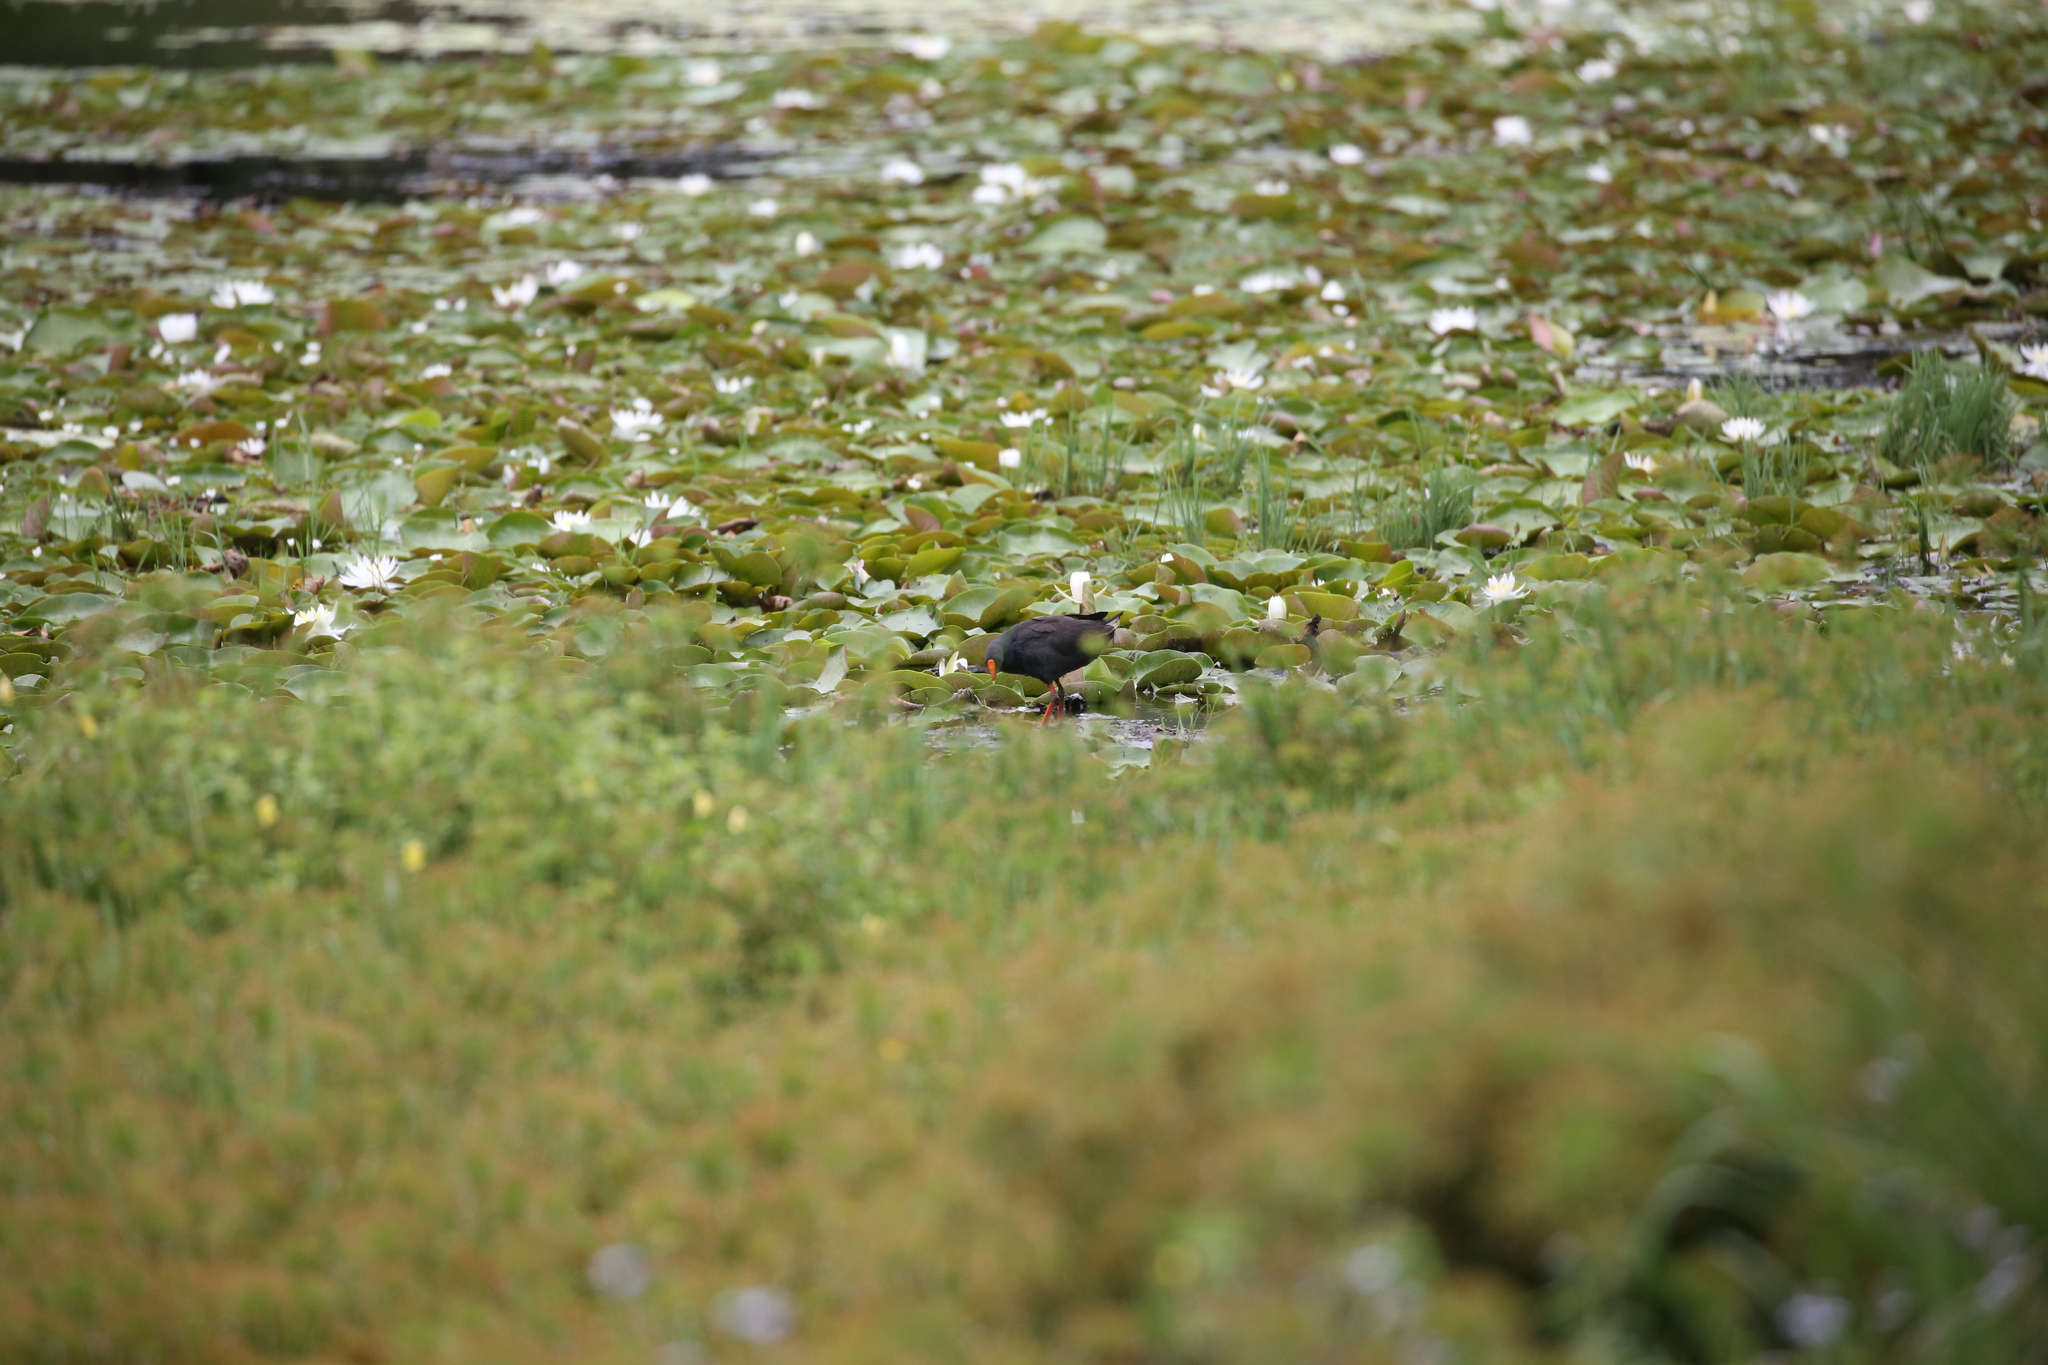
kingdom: Animalia
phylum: Chordata
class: Aves
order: Gruiformes
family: Rallidae
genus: Gallinula
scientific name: Gallinula tenebrosa
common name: Dusky moorhen
